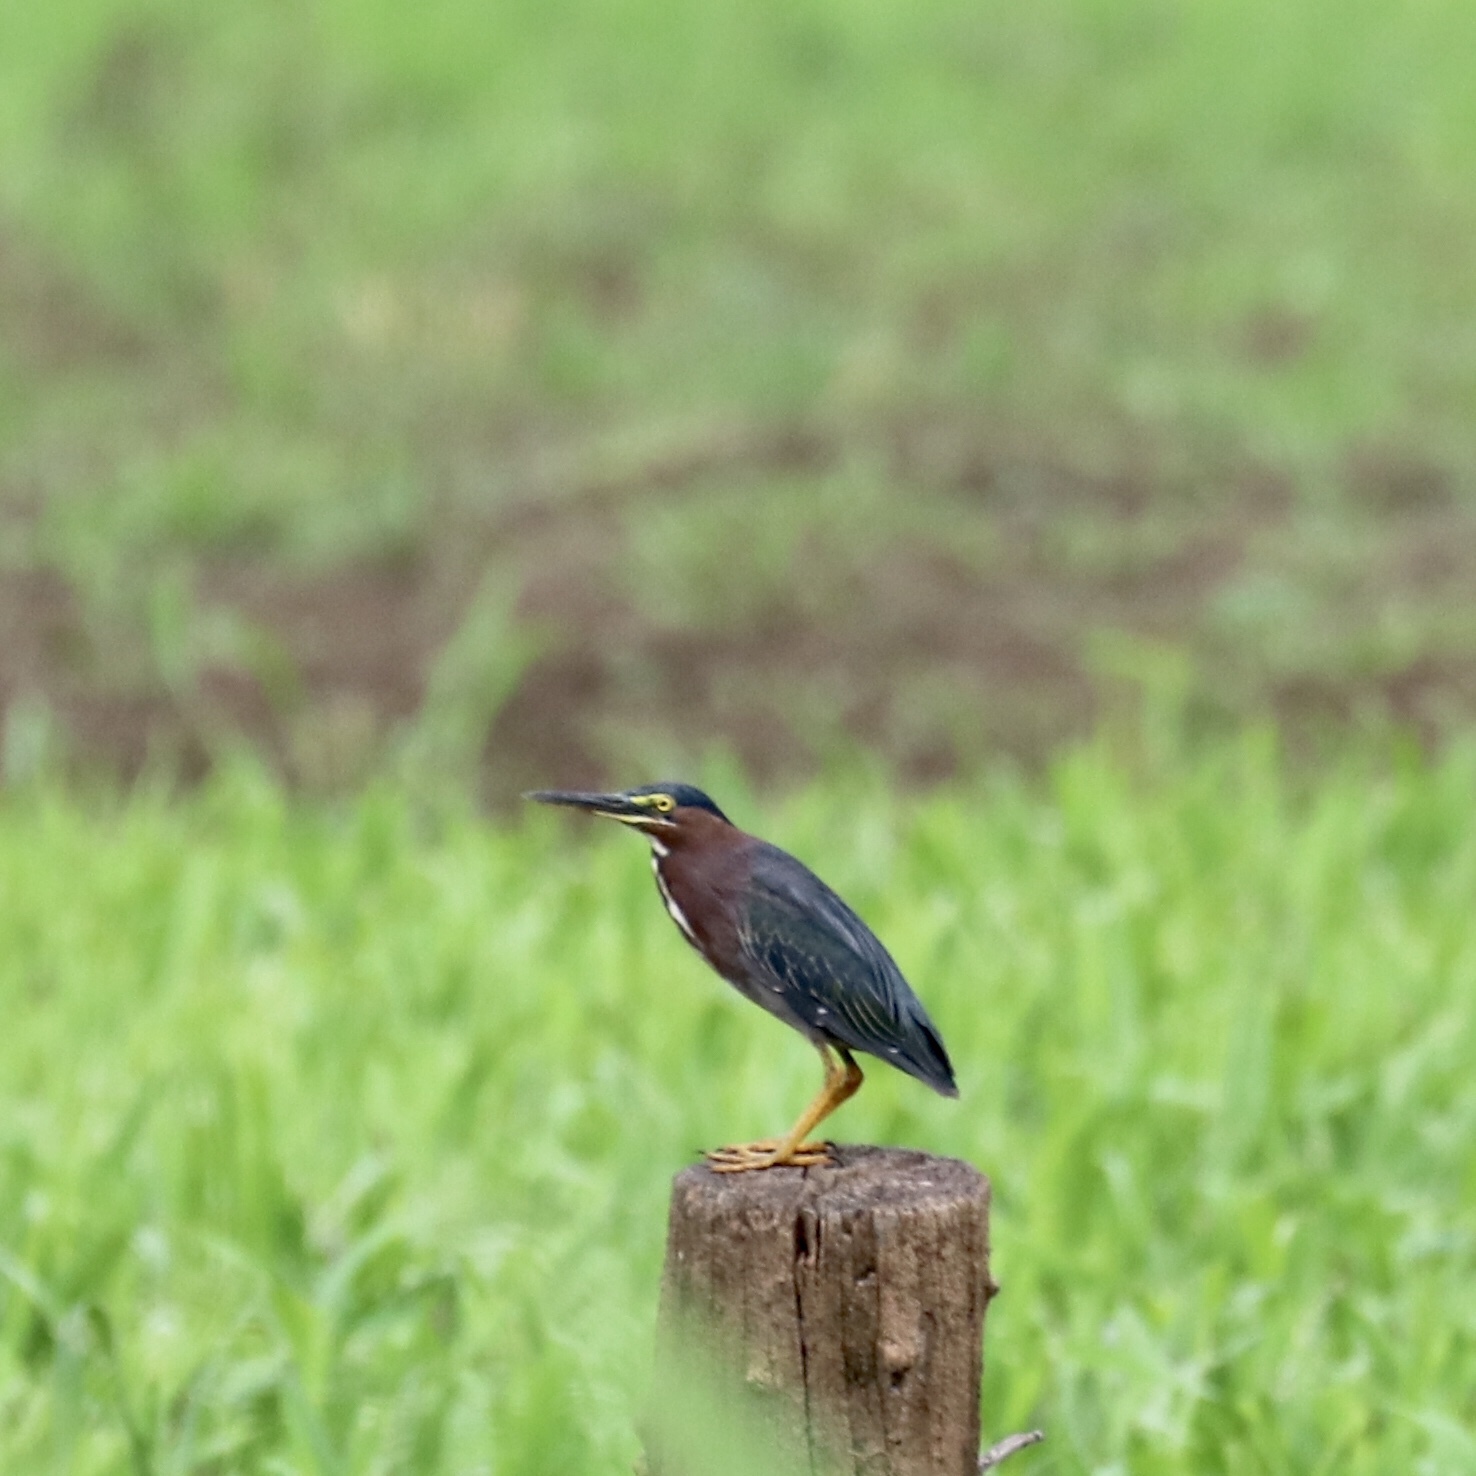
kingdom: Animalia
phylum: Chordata
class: Aves
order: Pelecaniformes
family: Ardeidae
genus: Butorides
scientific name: Butorides virescens
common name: Green heron
